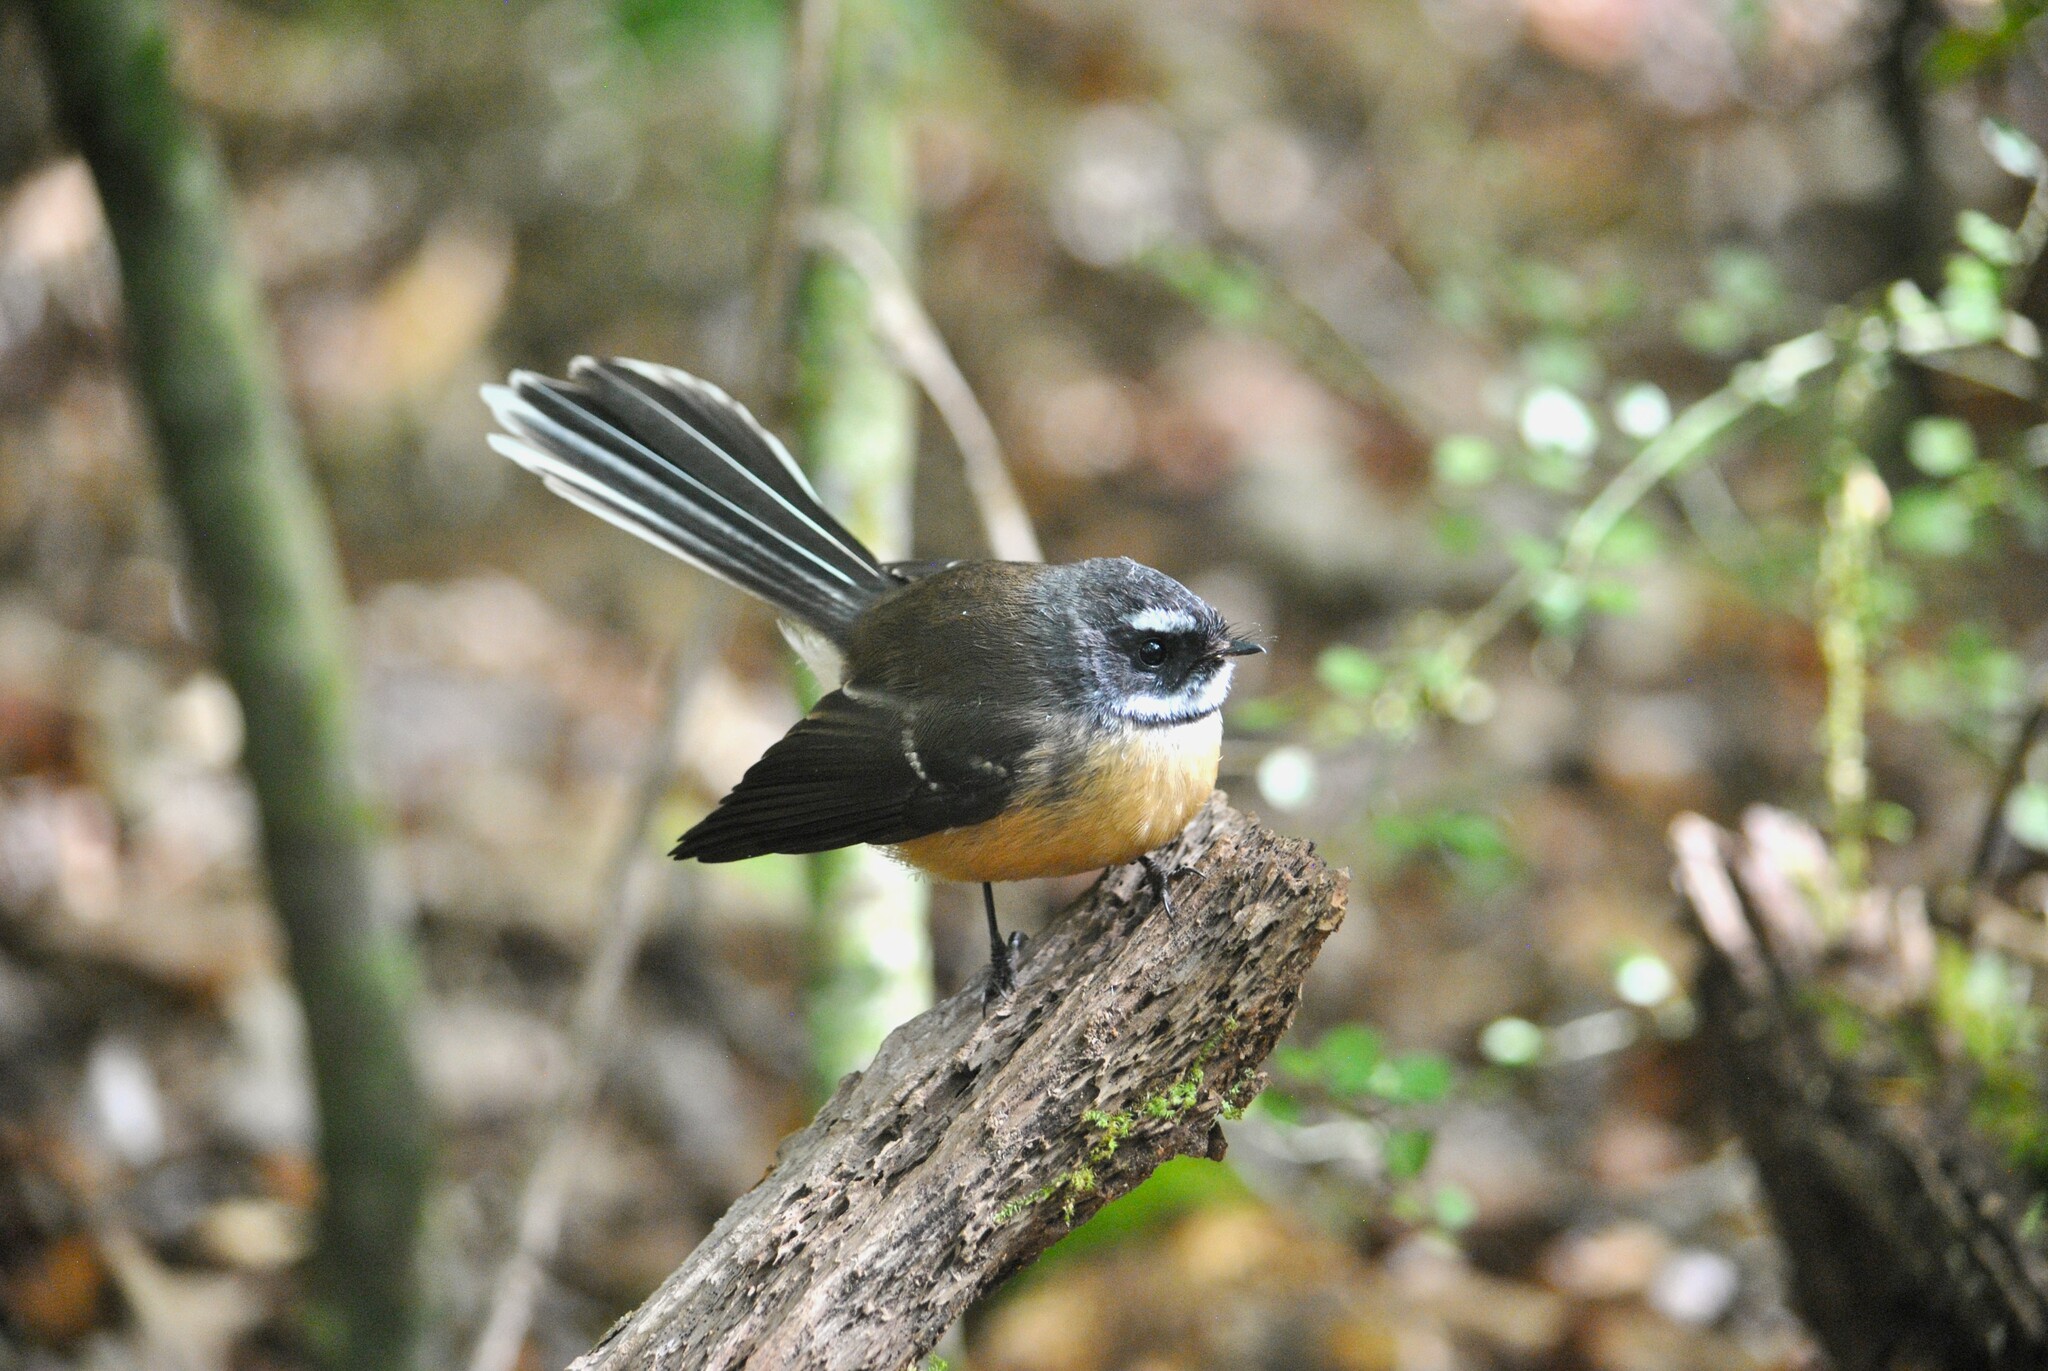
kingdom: Animalia
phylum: Chordata
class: Aves
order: Passeriformes
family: Rhipiduridae
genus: Rhipidura
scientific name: Rhipidura fuliginosa
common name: New zealand fantail
